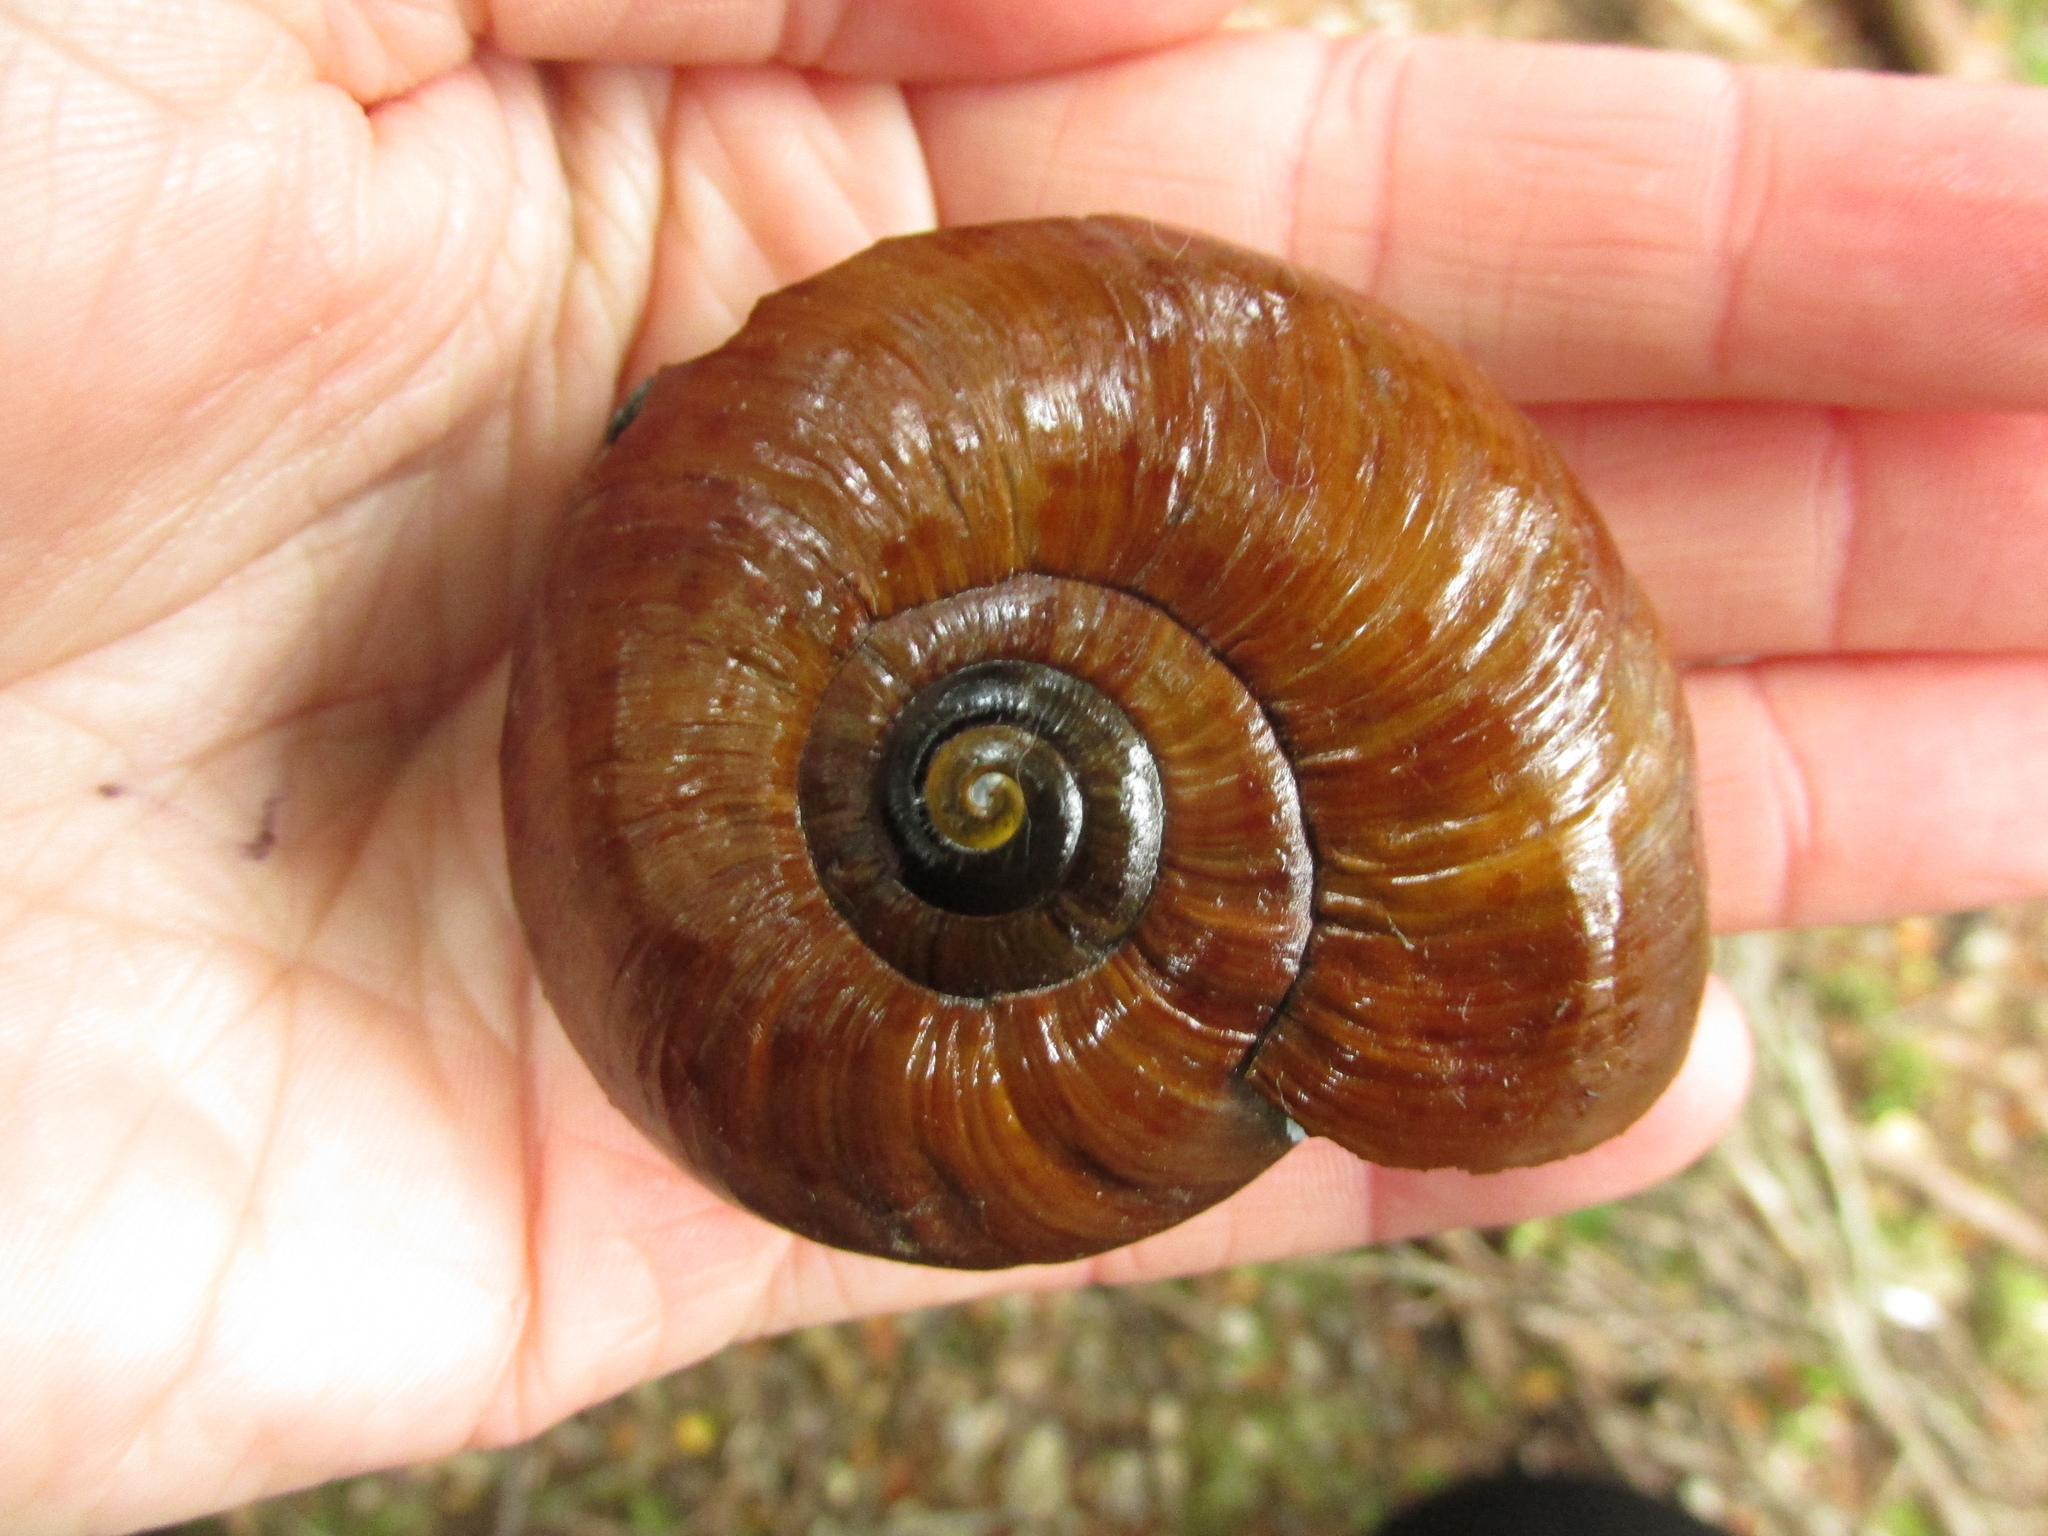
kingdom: Animalia
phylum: Mollusca
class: Gastropoda
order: Stylommatophora
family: Rhytididae
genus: Powelliphanta
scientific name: Powelliphanta superba
